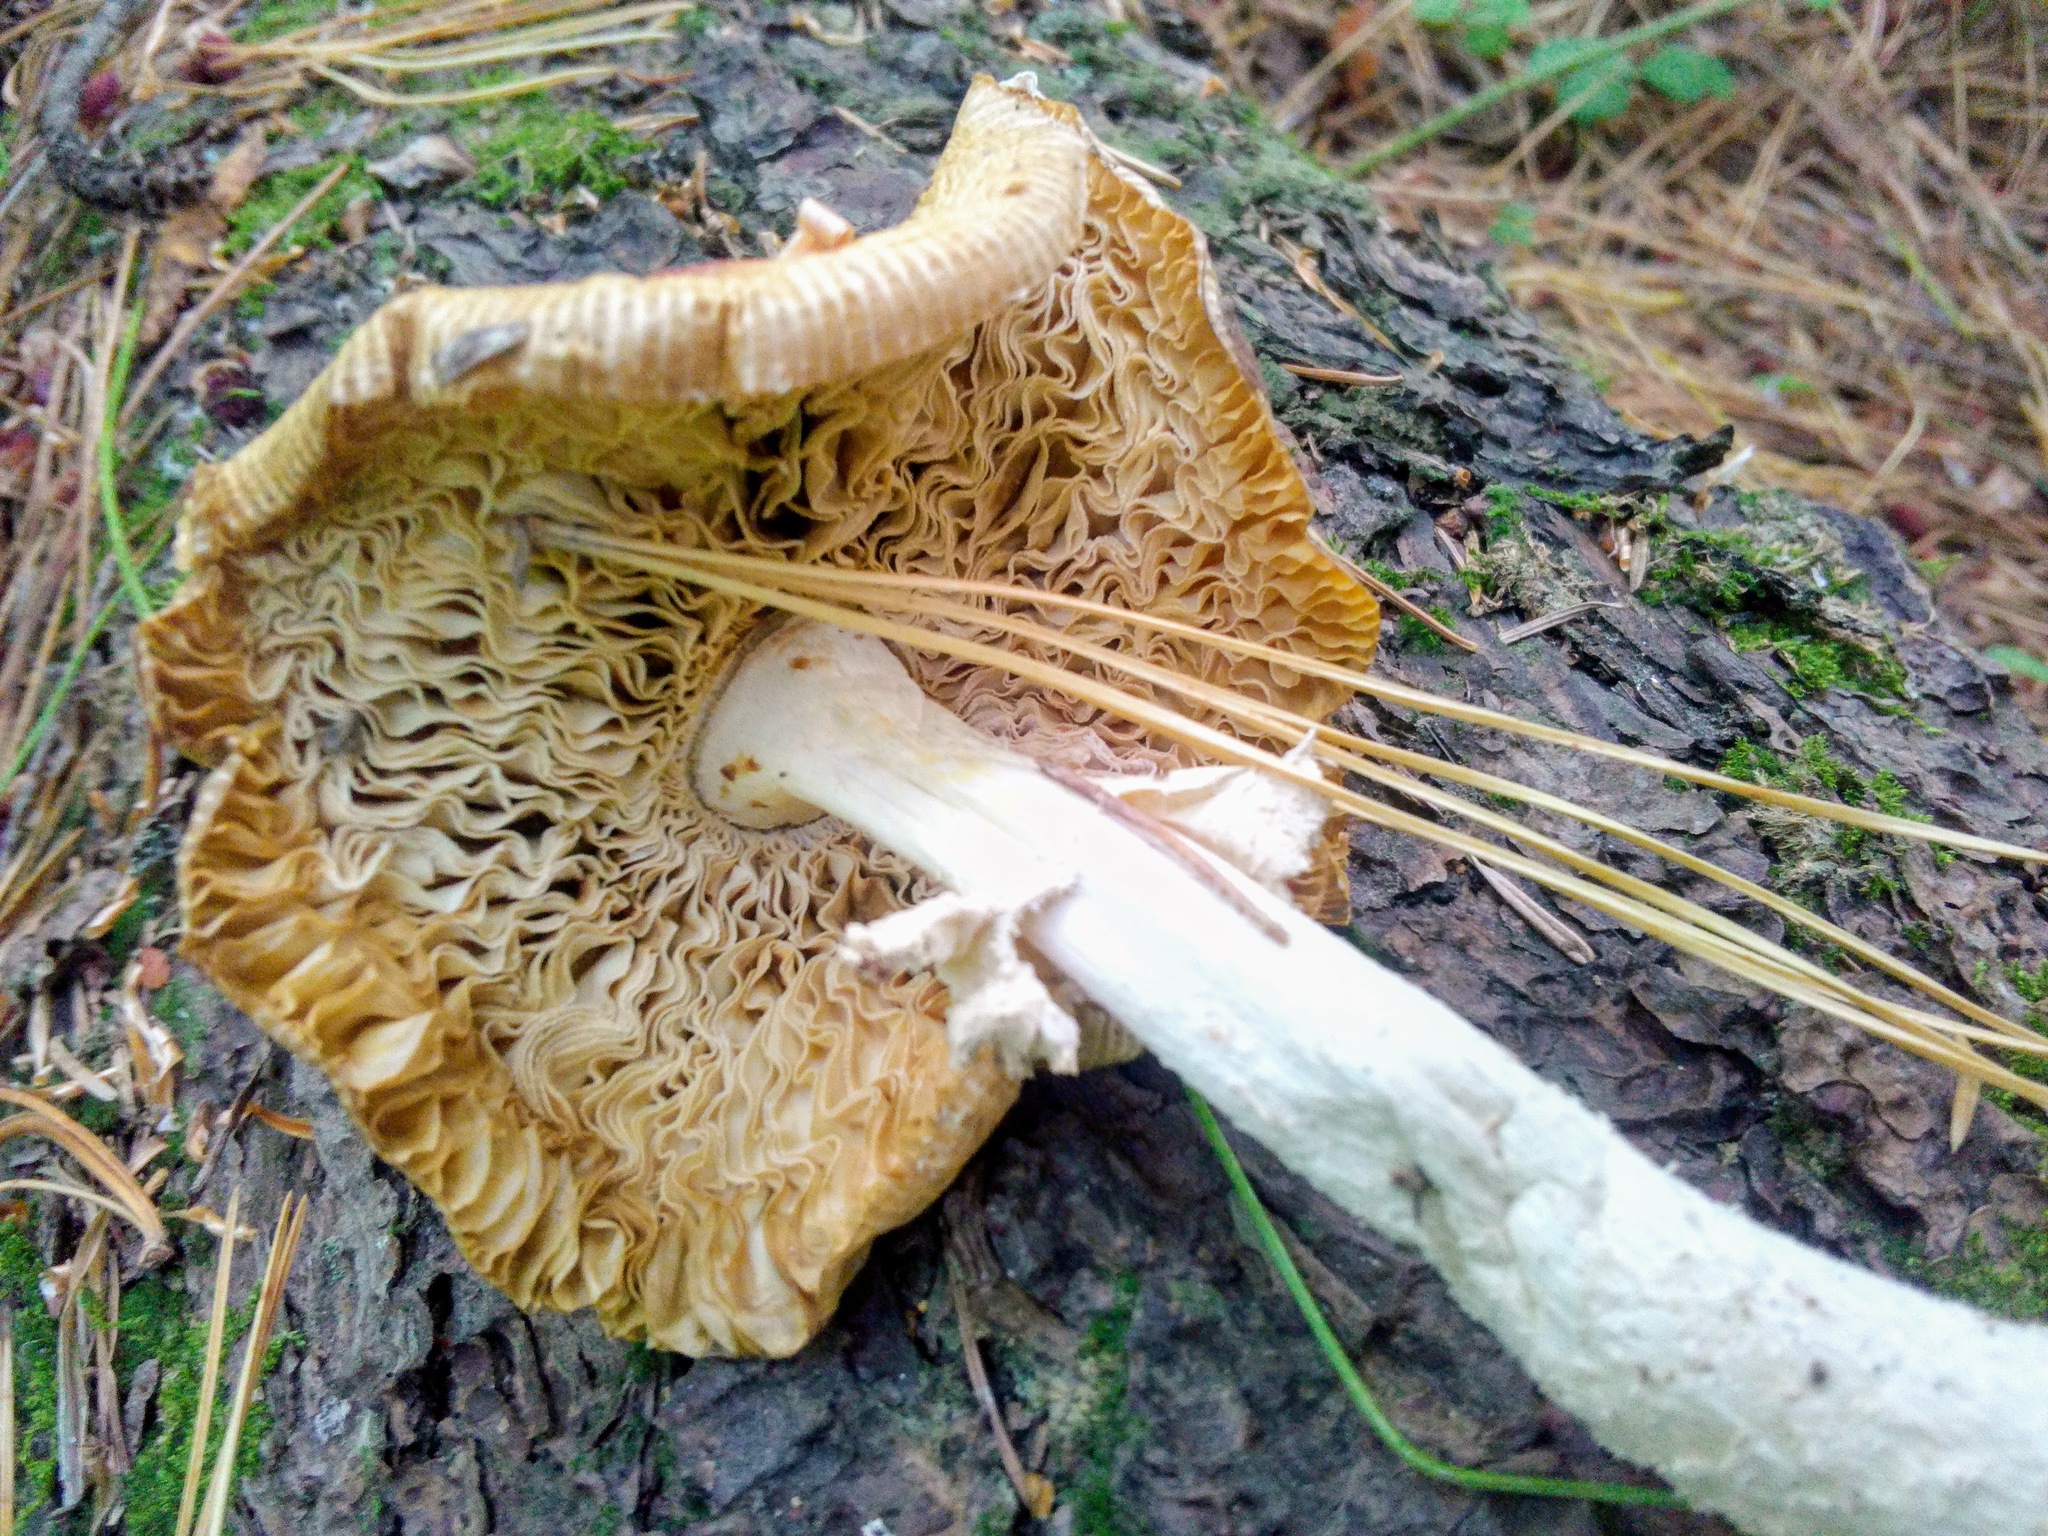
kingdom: Fungi
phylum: Basidiomycota
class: Agaricomycetes
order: Agaricales
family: Amanitaceae
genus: Amanita
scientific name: Amanita regalis
